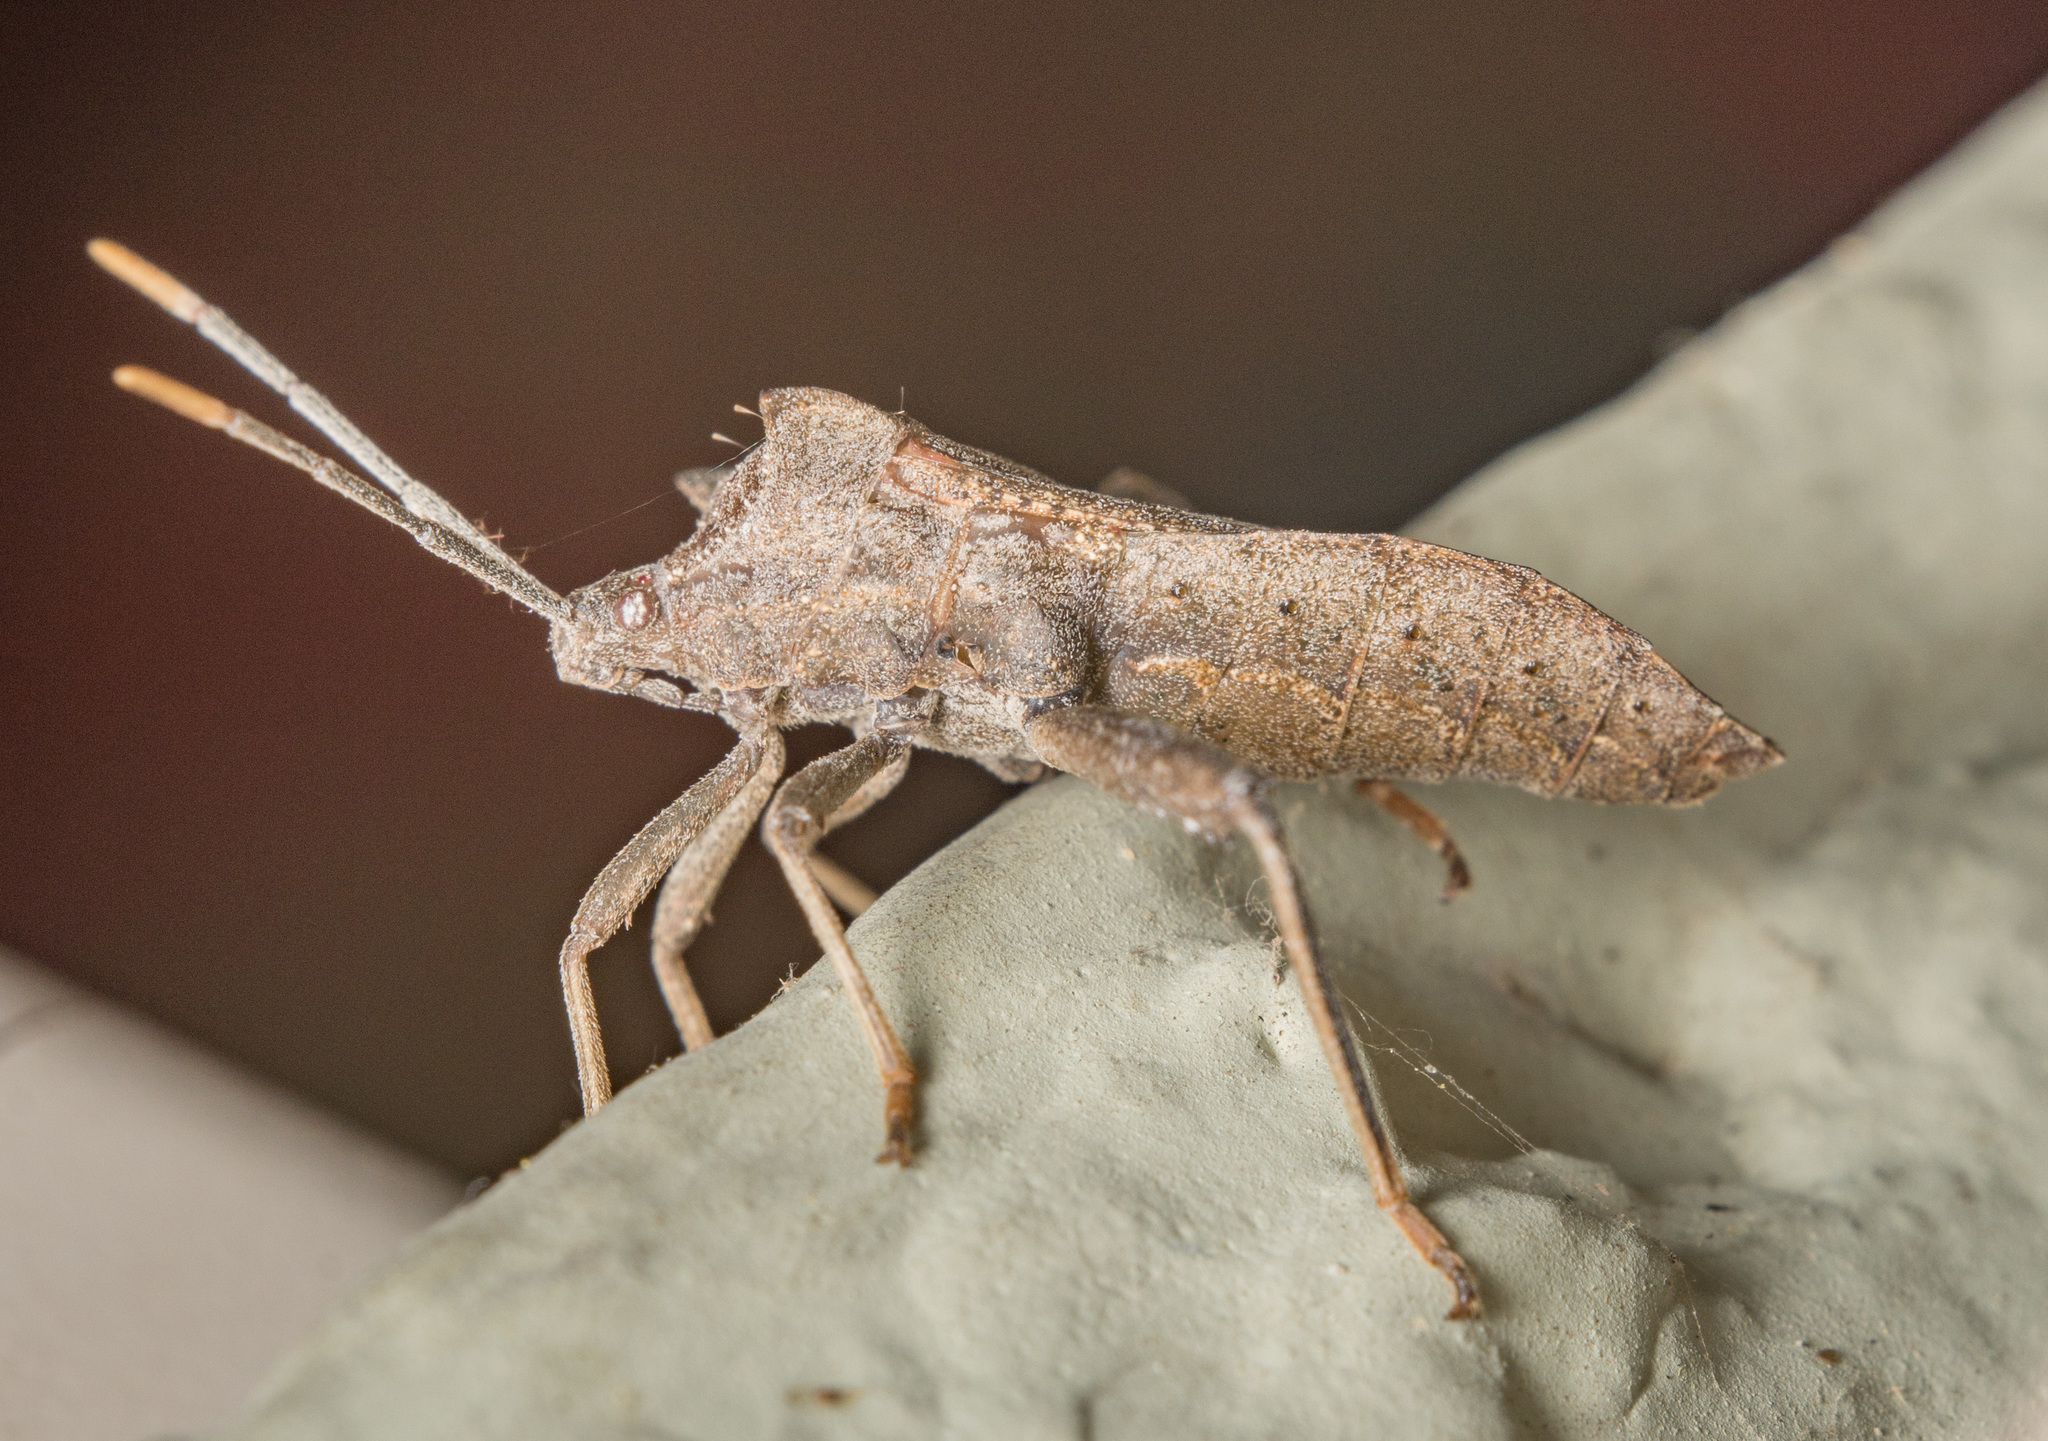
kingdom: Animalia
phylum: Arthropoda
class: Insecta
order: Hemiptera
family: Coreidae
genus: Mozena
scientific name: Mozena lunata
